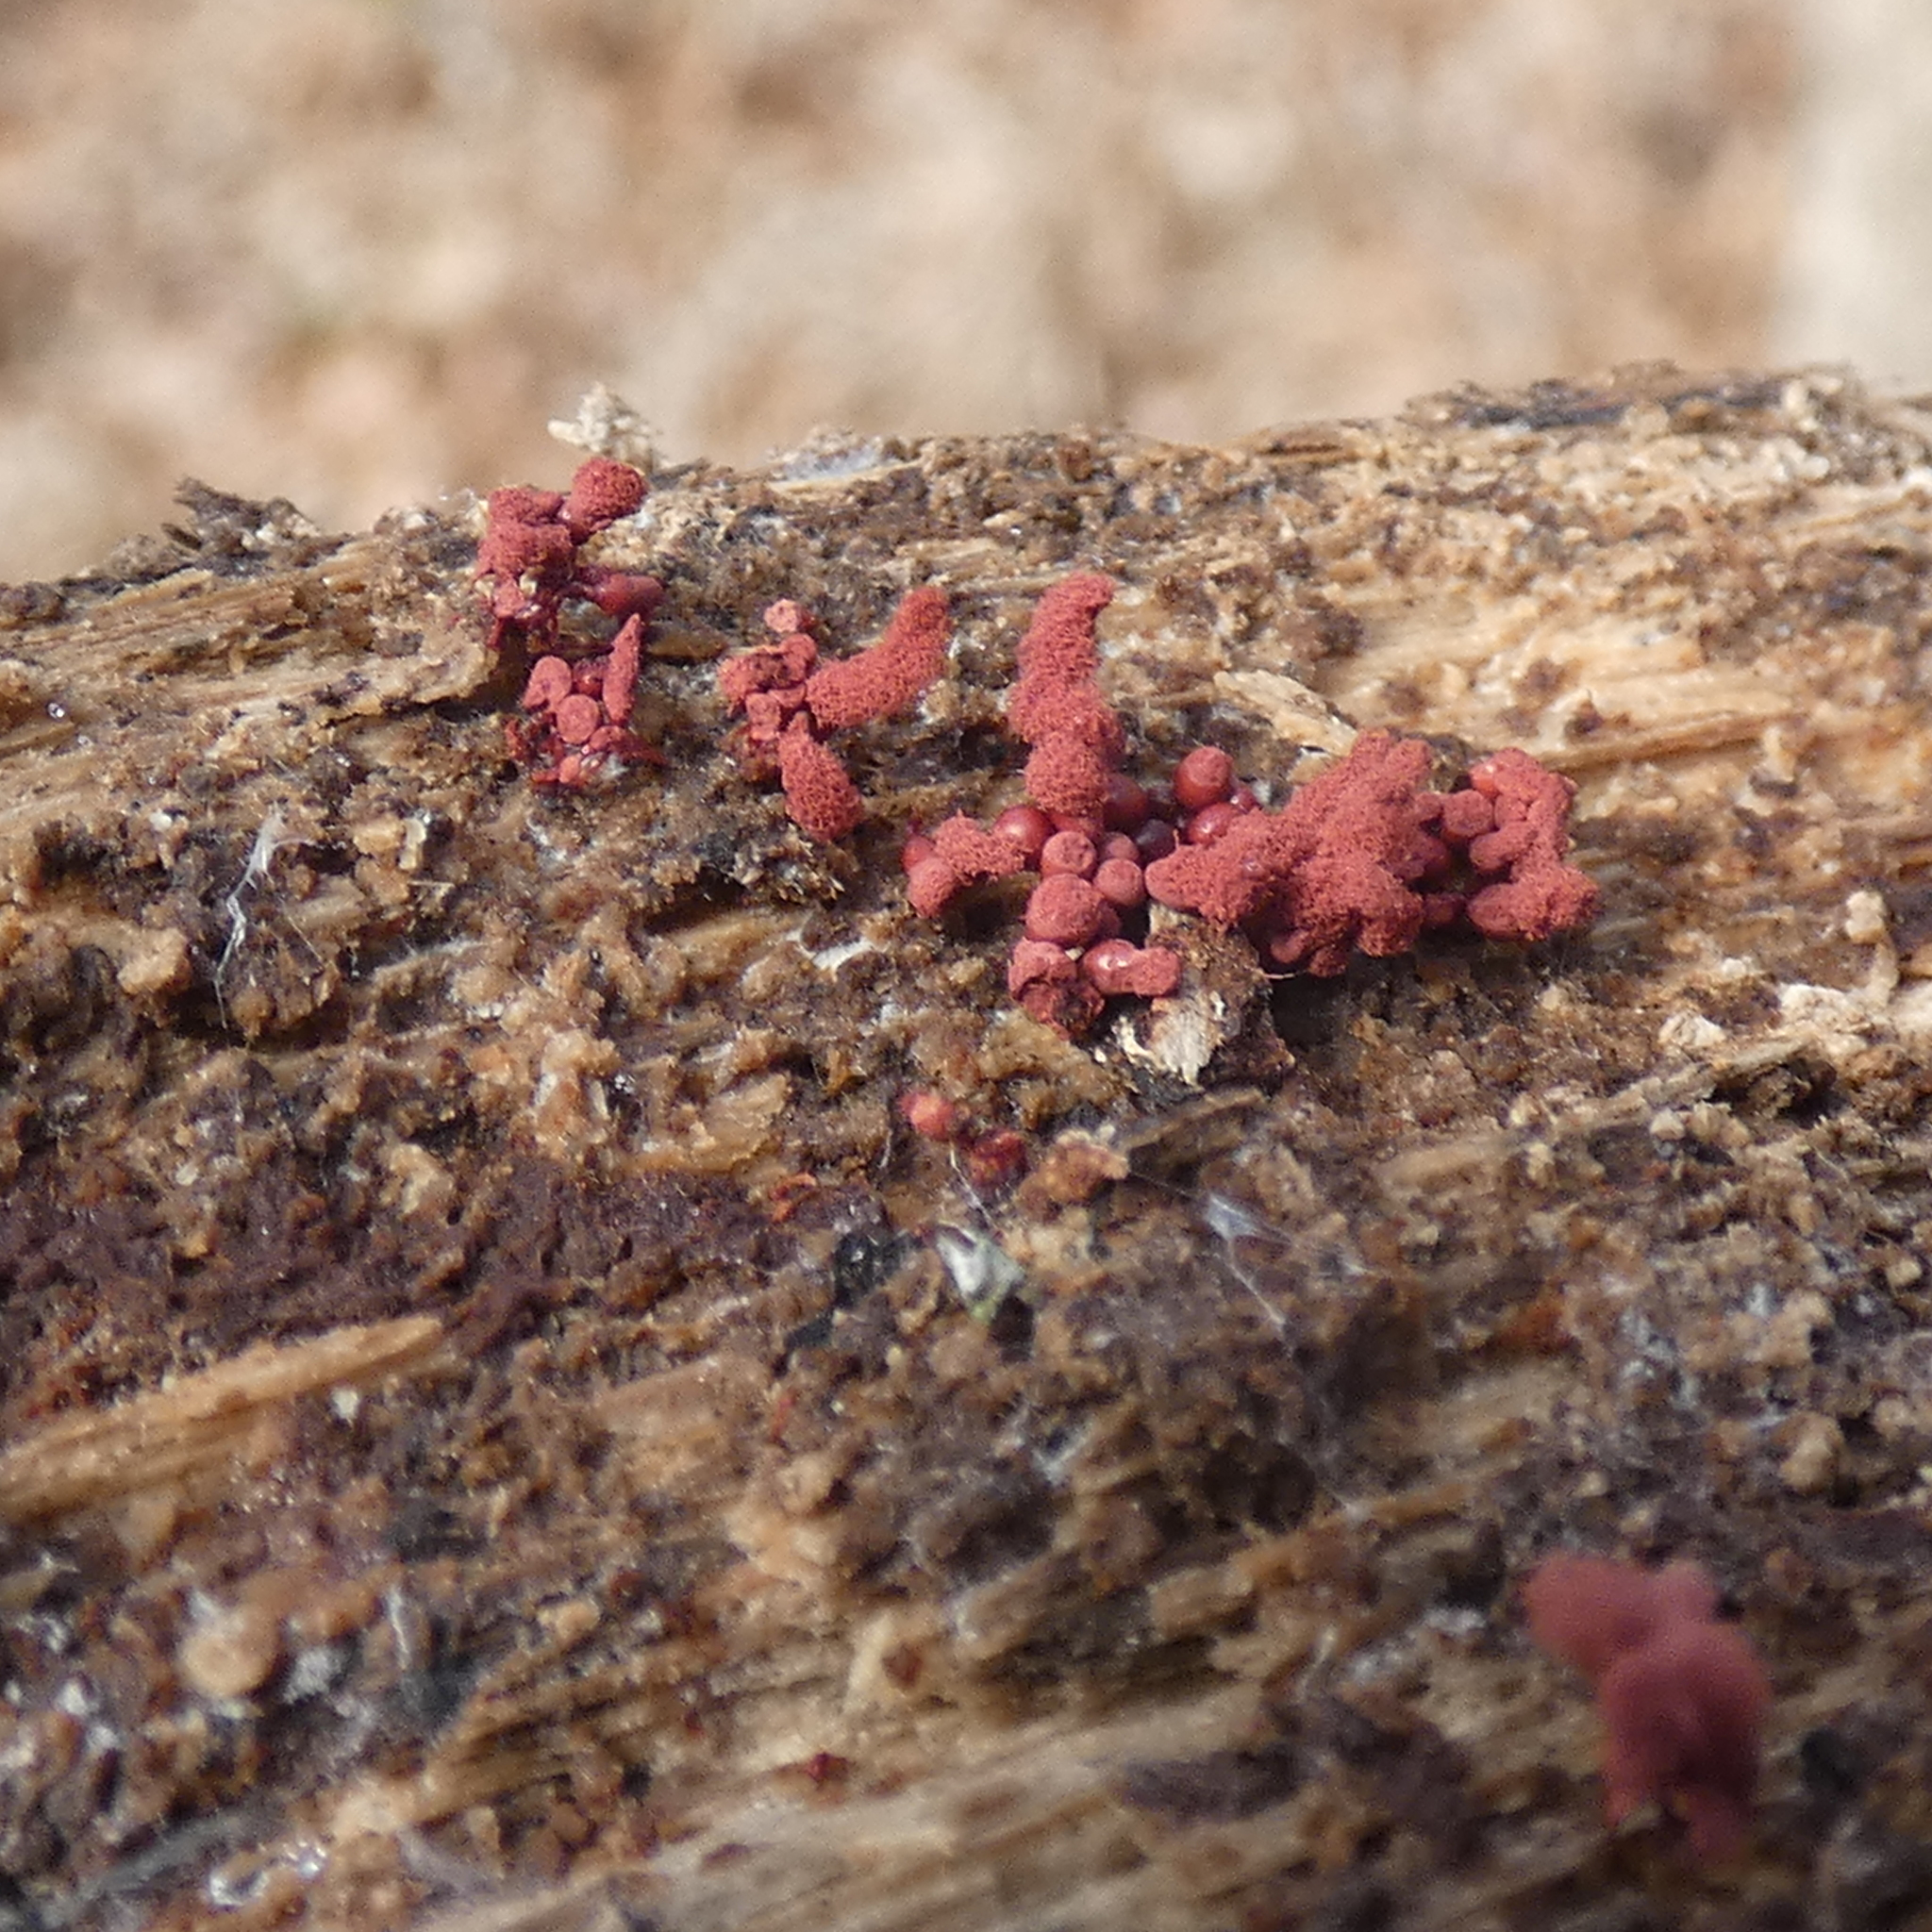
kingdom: Protozoa
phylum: Mycetozoa
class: Myxomycetes
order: Trichiales
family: Arcyriaceae
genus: Arcyria
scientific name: Arcyria denudata
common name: Carnival candy slime mold
